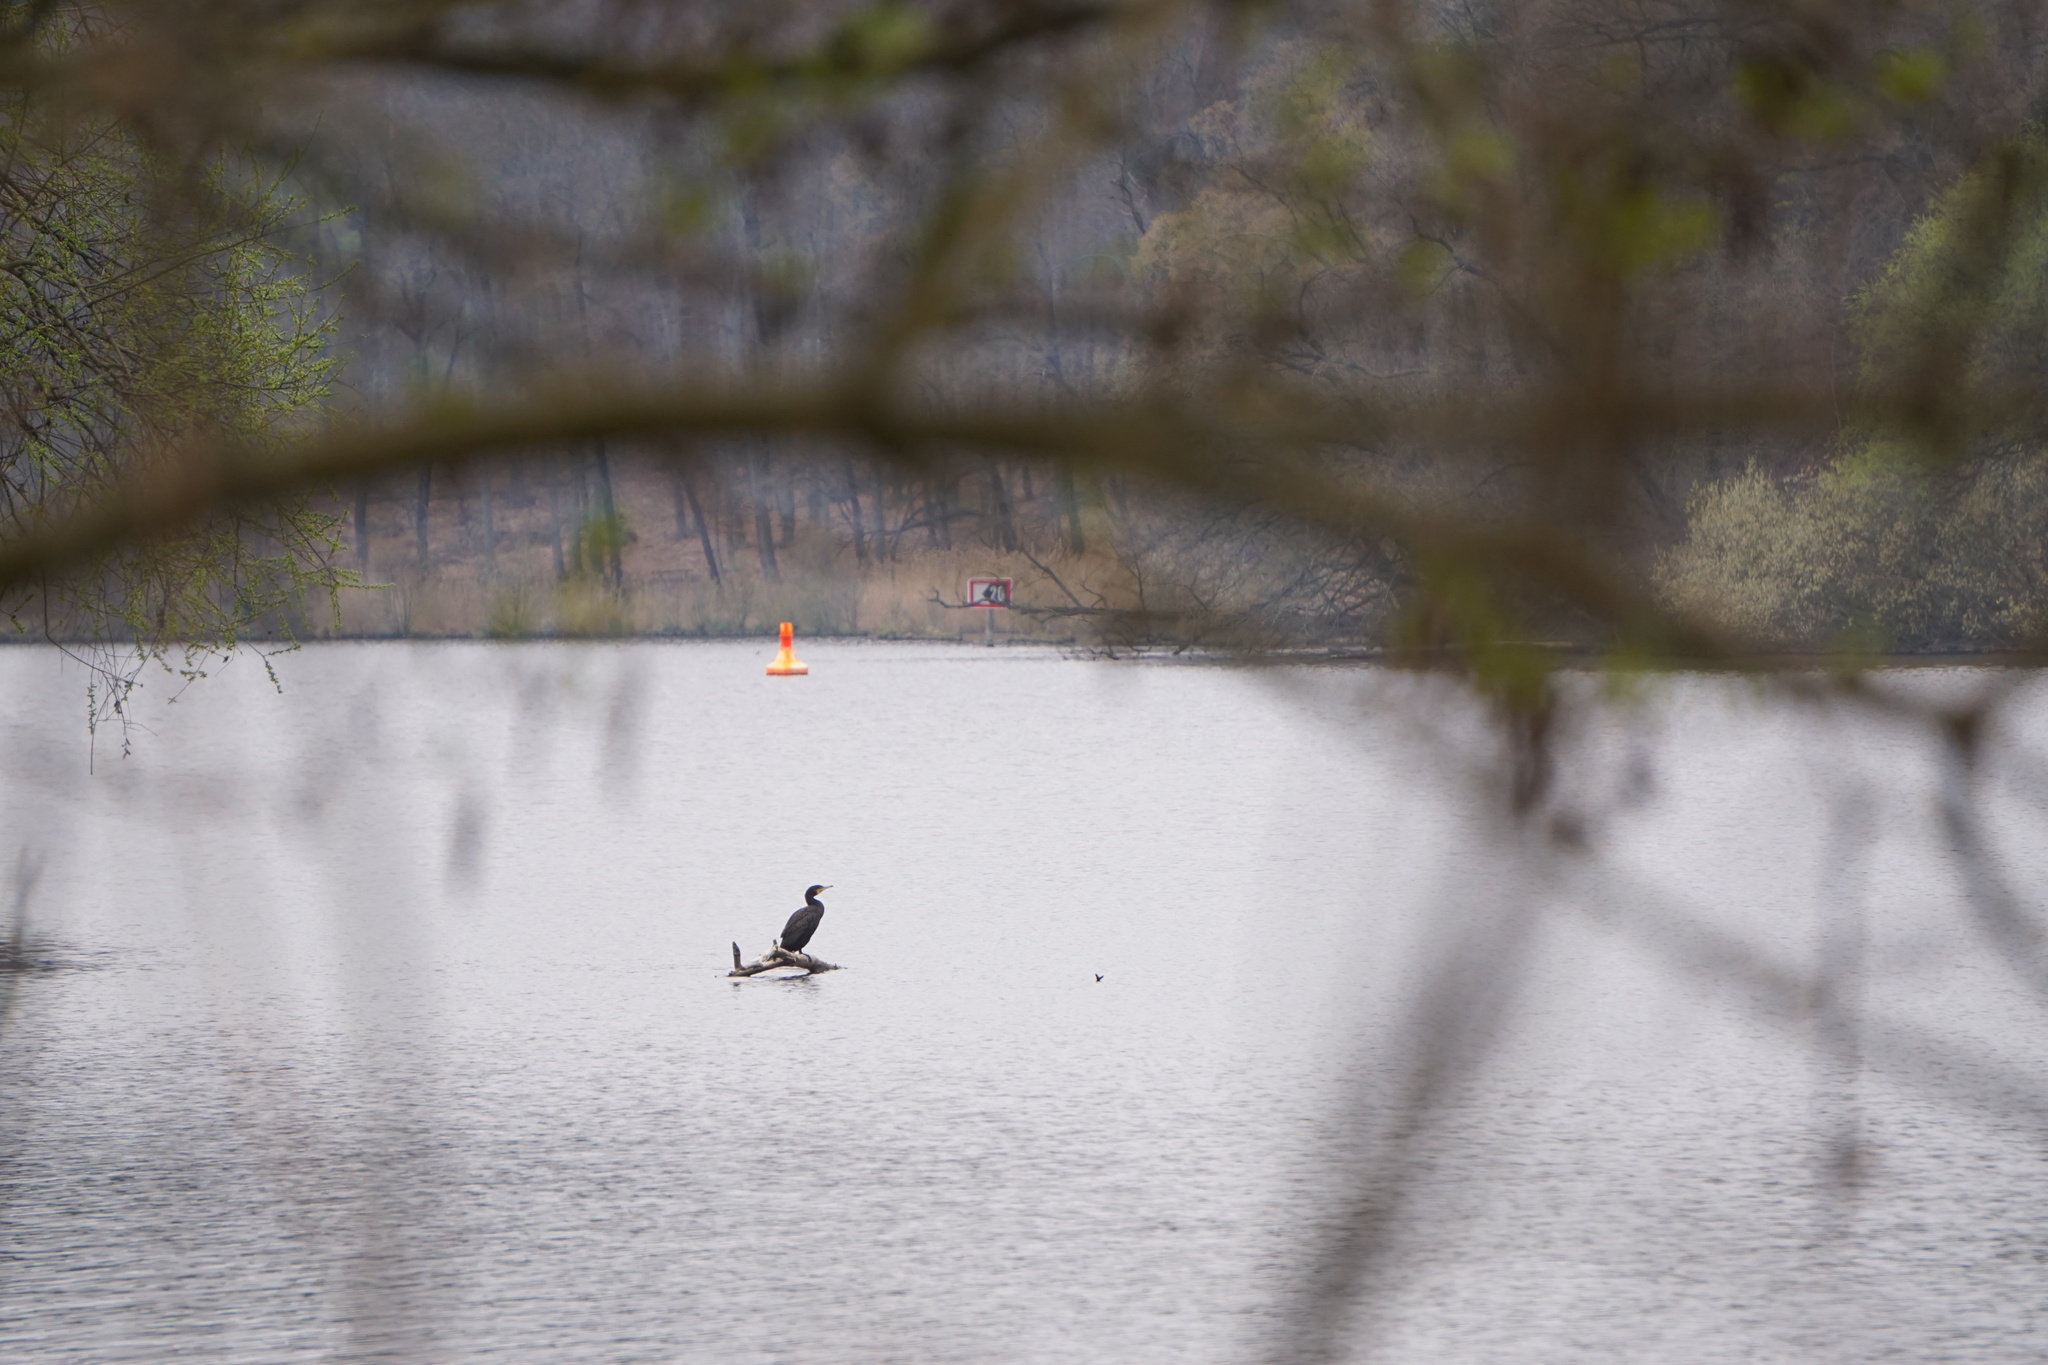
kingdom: Animalia
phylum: Chordata
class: Aves
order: Suliformes
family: Phalacrocoracidae
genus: Phalacrocorax
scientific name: Phalacrocorax carbo
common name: Great cormorant
